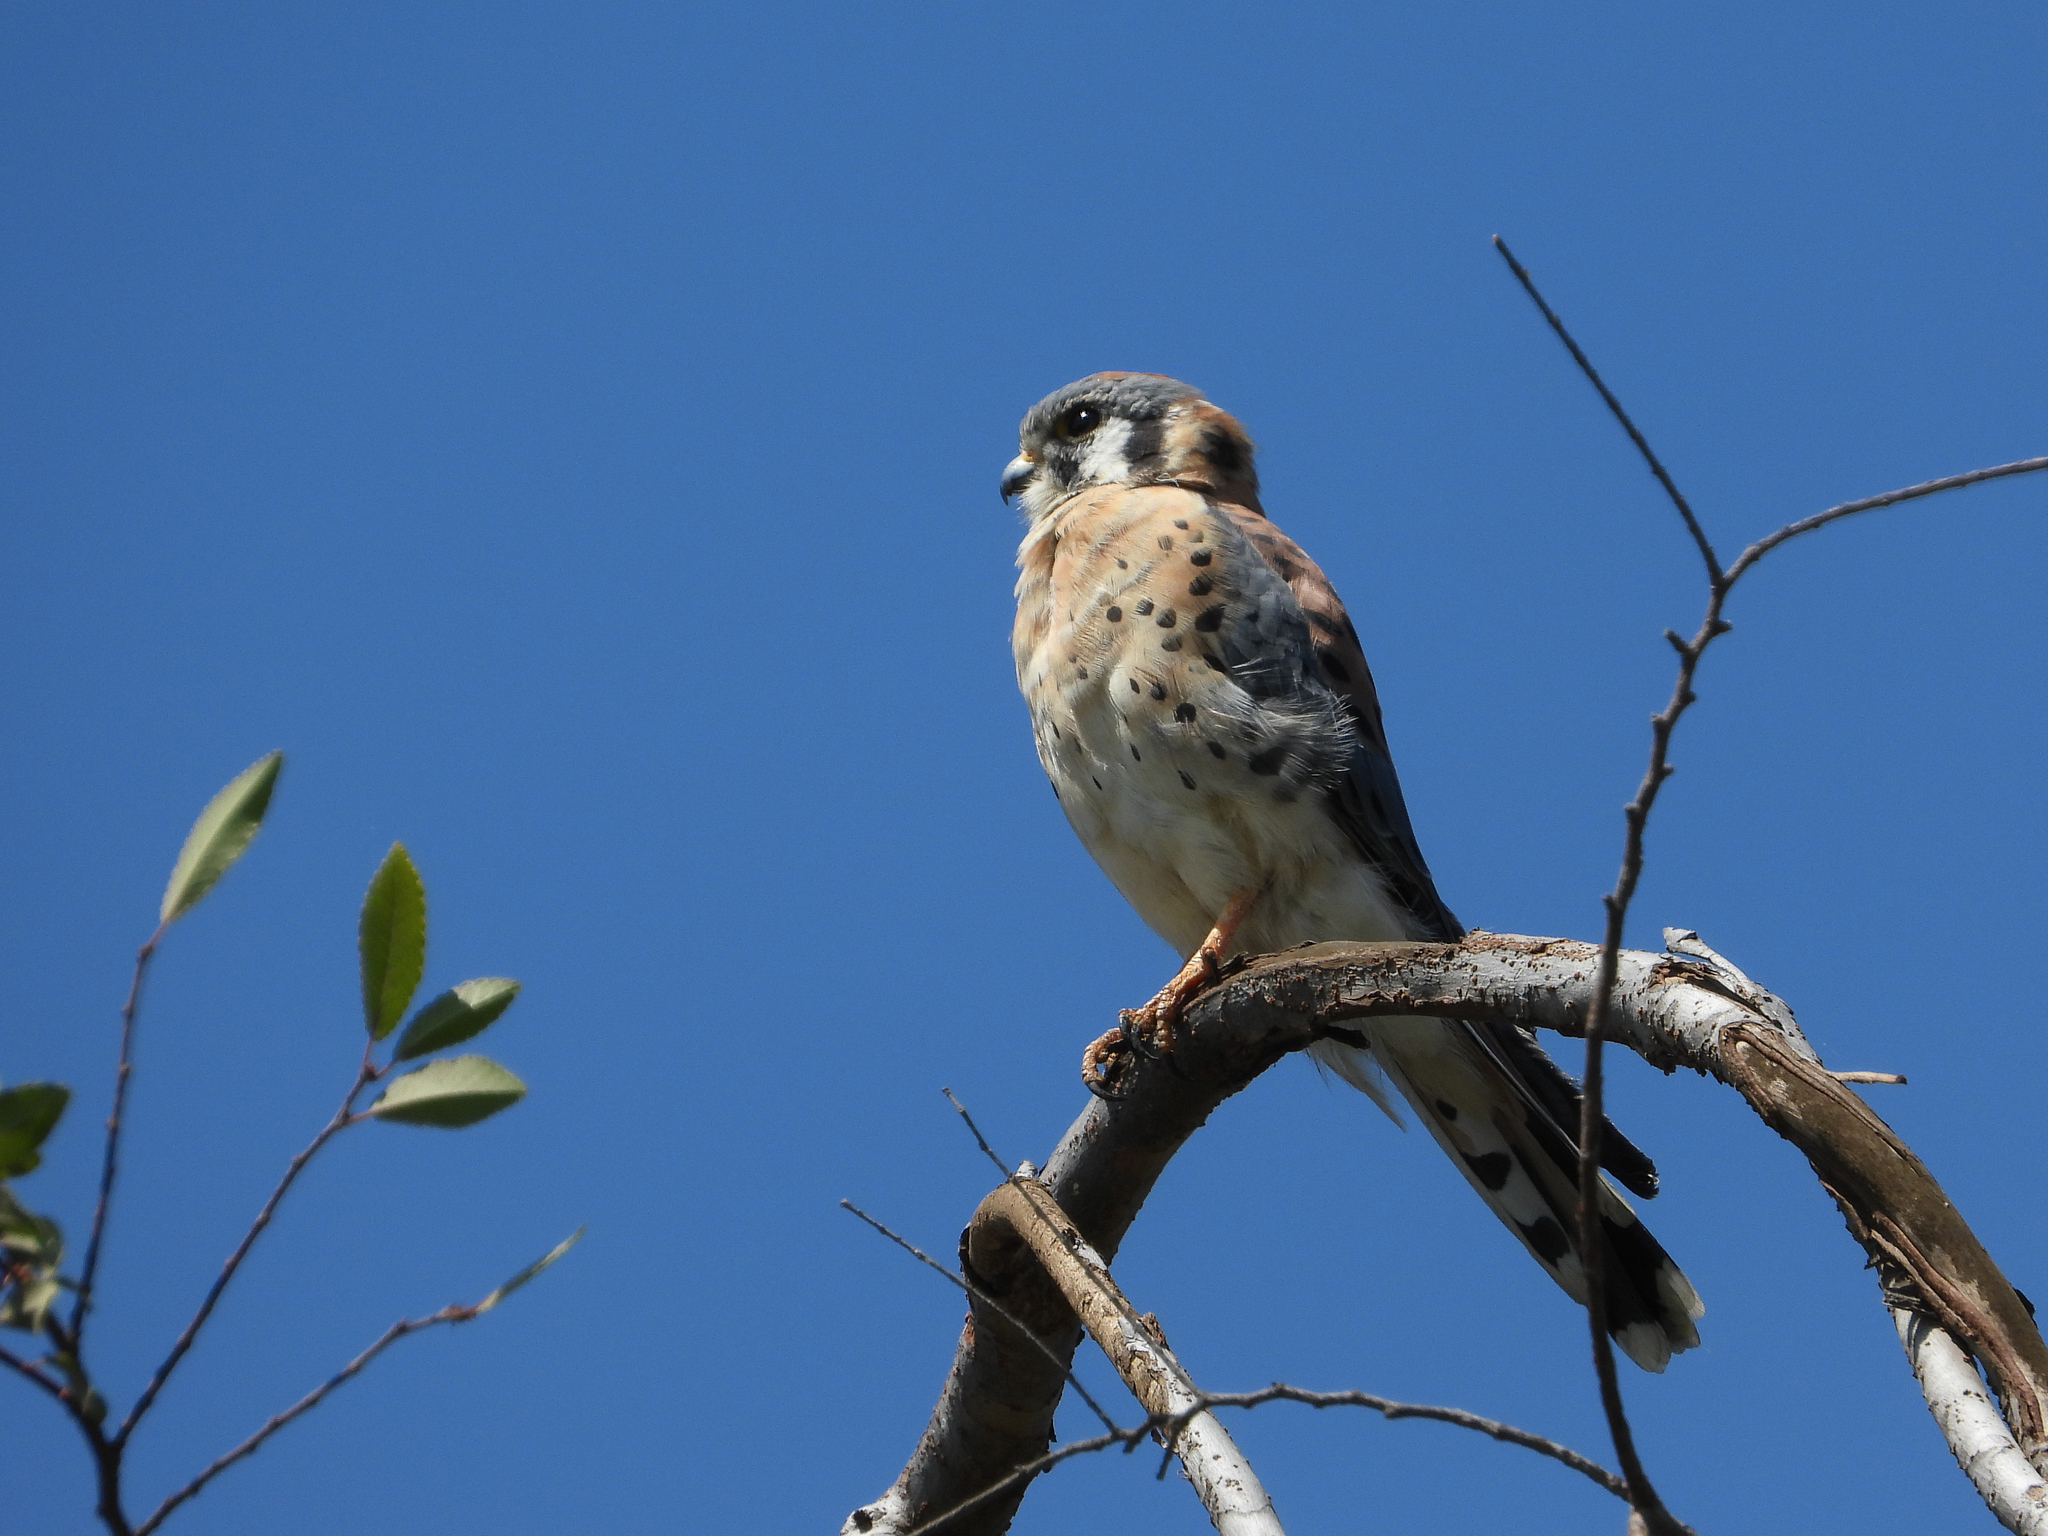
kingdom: Animalia
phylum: Chordata
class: Aves
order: Falconiformes
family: Falconidae
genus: Falco
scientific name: Falco sparverius
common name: American kestrel
